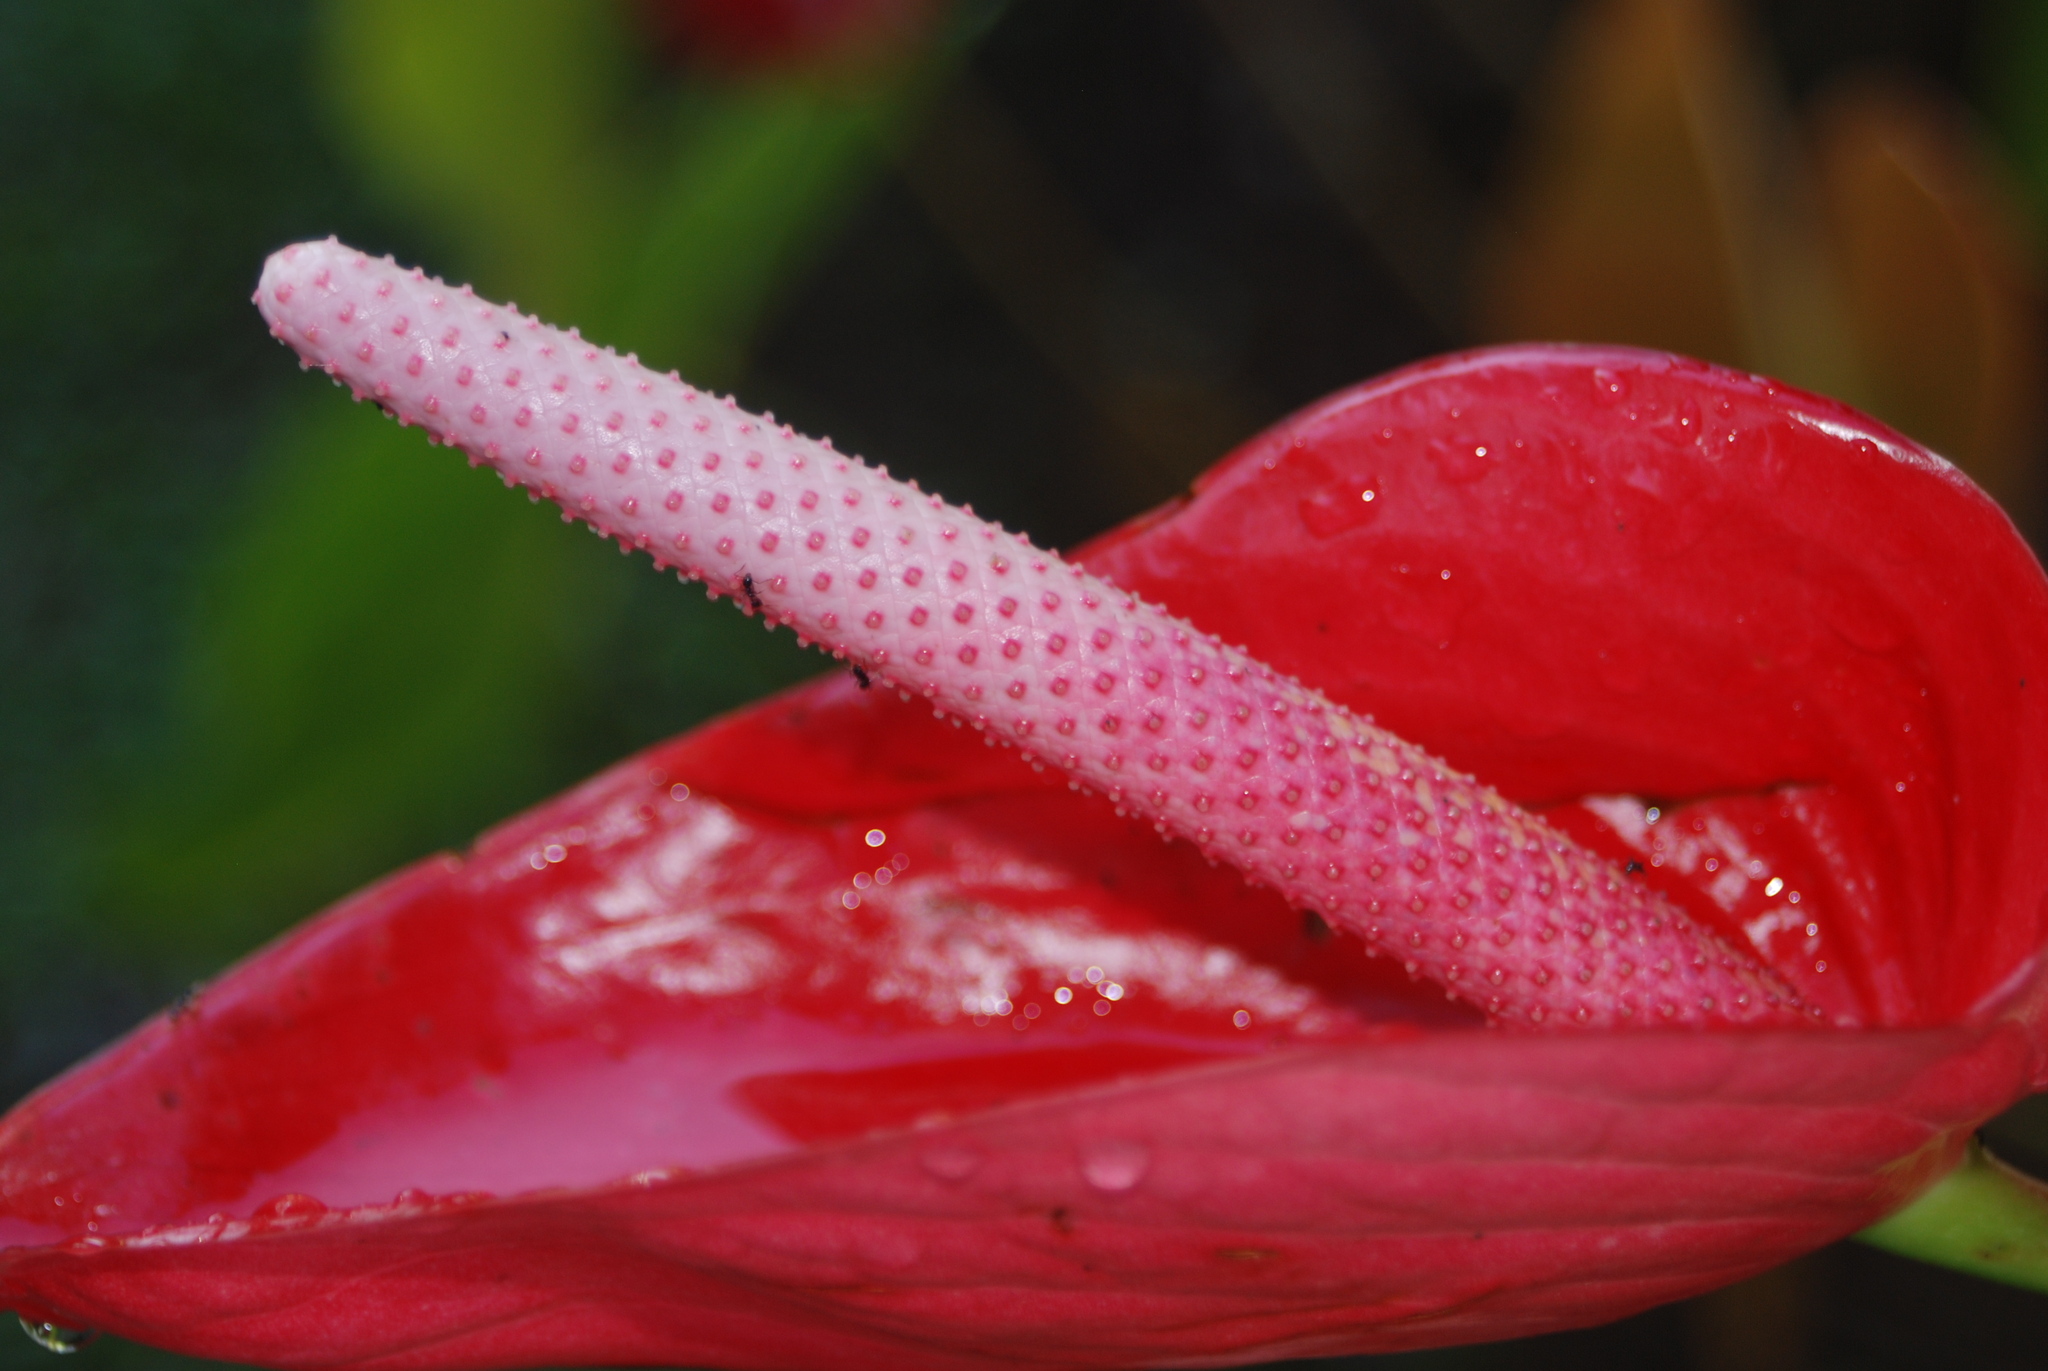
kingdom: Plantae
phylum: Tracheophyta
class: Liliopsida
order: Alismatales
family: Araceae
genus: Anthurium
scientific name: Anthurium andraeanum
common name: Flamingo-flower
